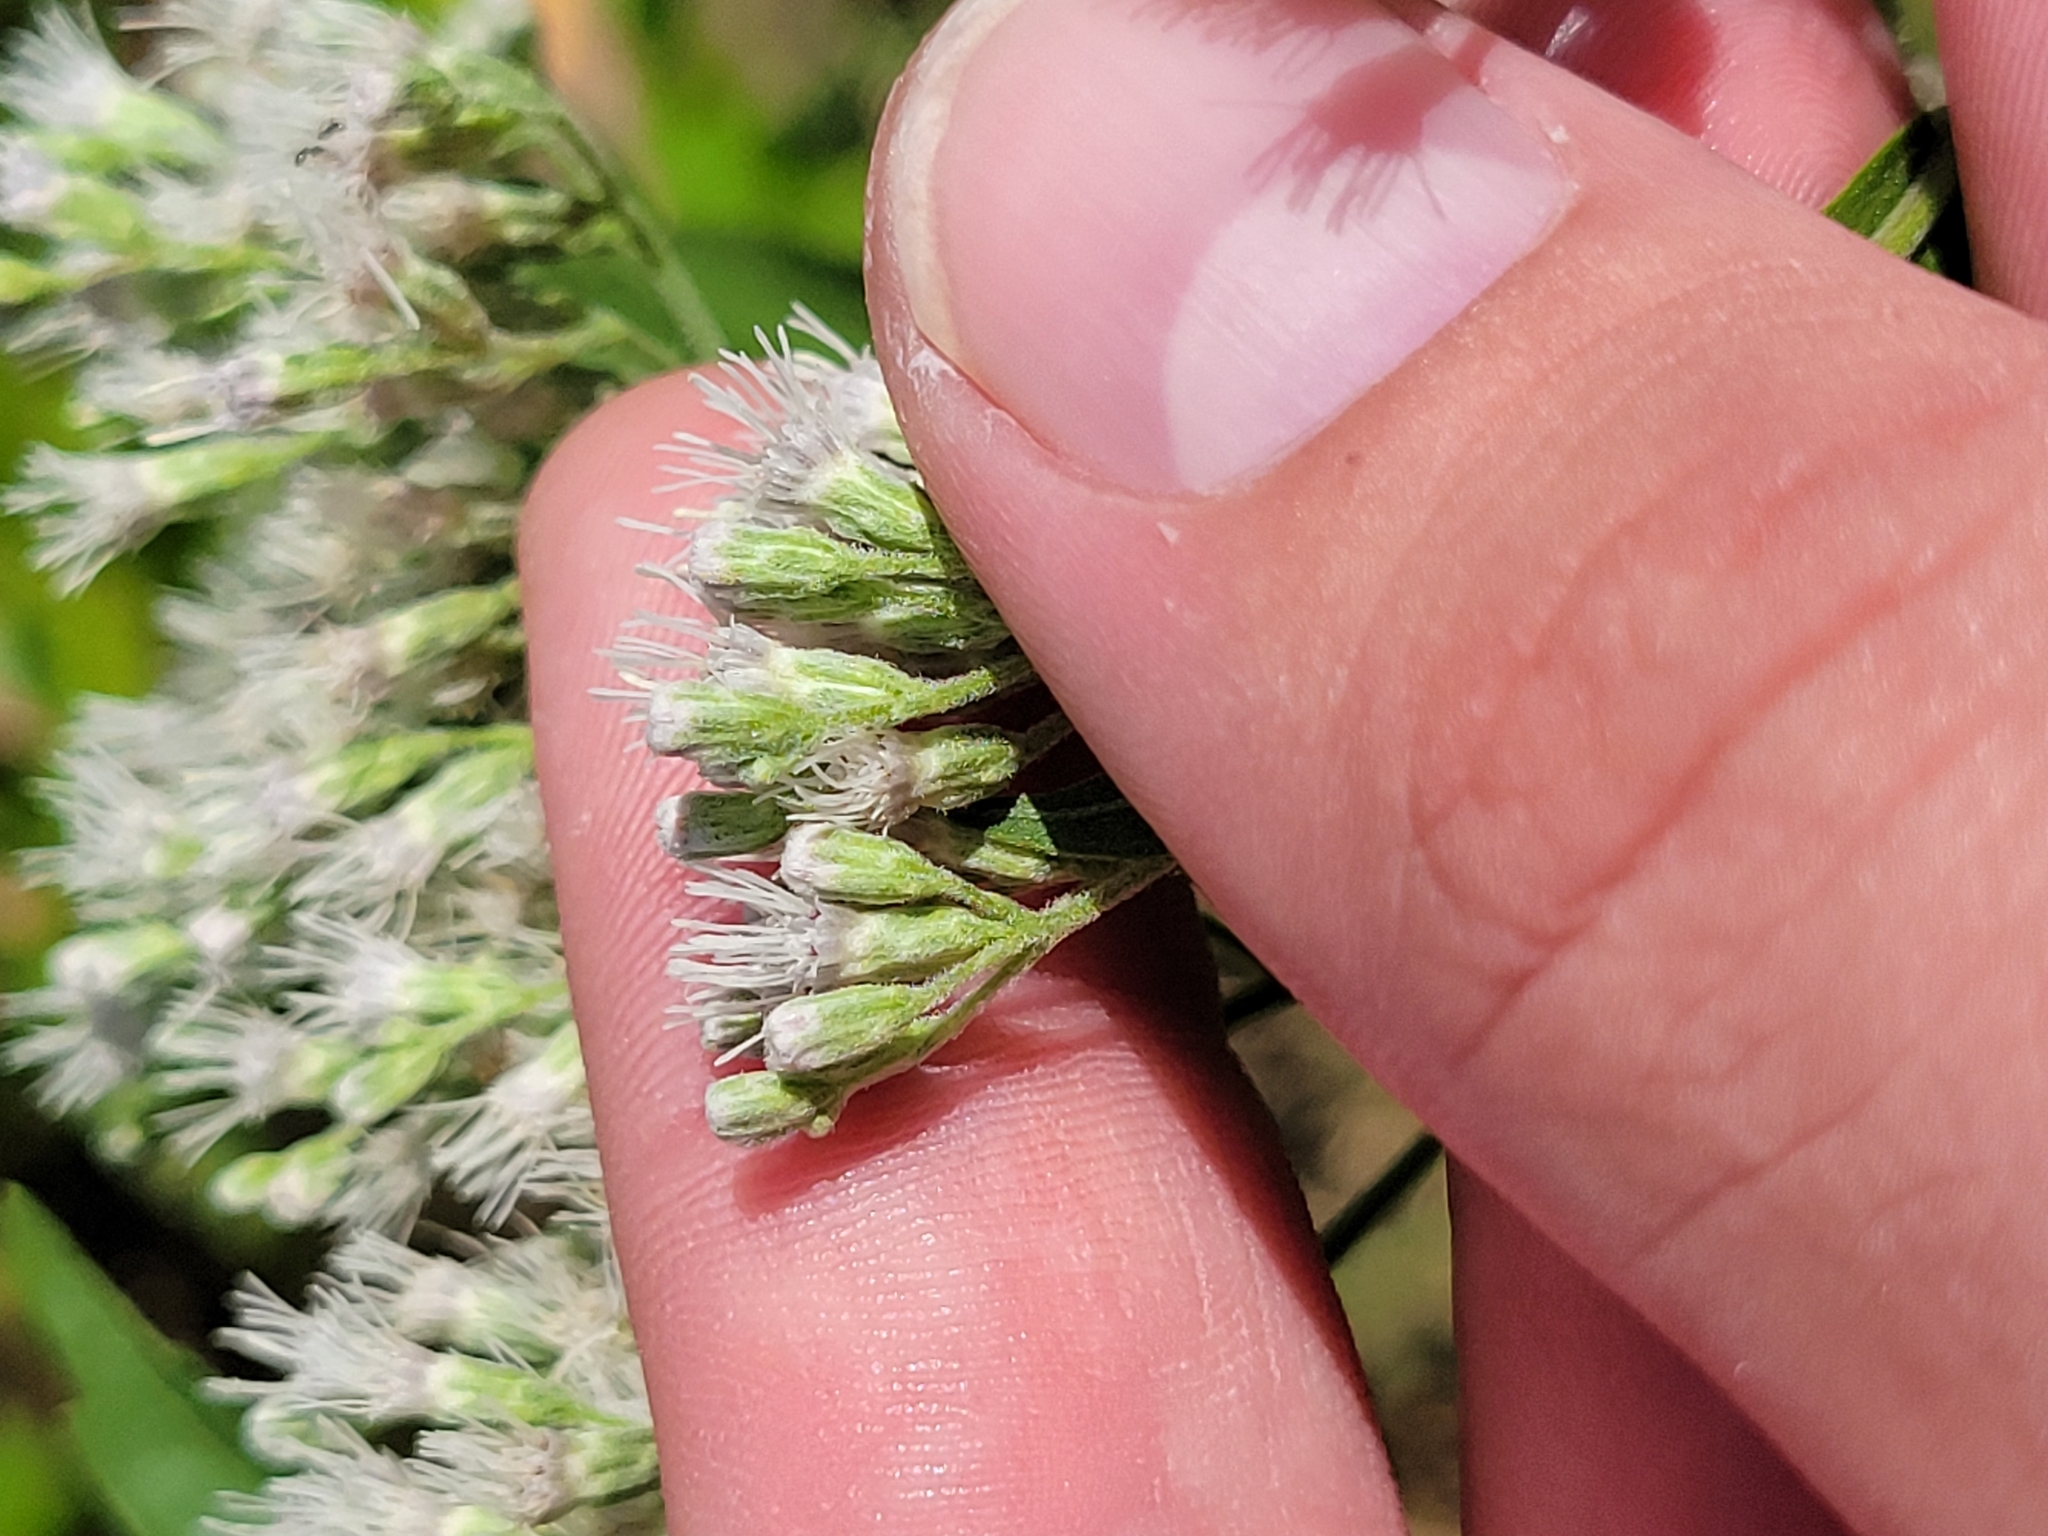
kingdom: Plantae
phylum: Tracheophyta
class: Magnoliopsida
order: Asterales
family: Asteraceae
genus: Eupatorium
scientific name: Eupatorium serotinum
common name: Late boneset
